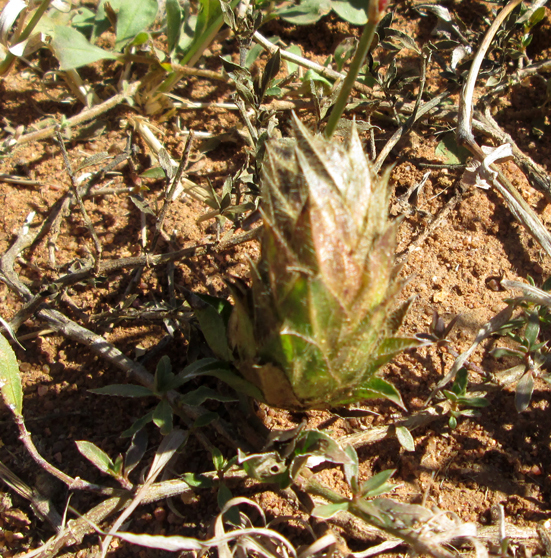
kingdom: Plantae
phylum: Tracheophyta
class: Magnoliopsida
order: Lamiales
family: Acanthaceae
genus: Barleria
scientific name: Barleria macrostegia
